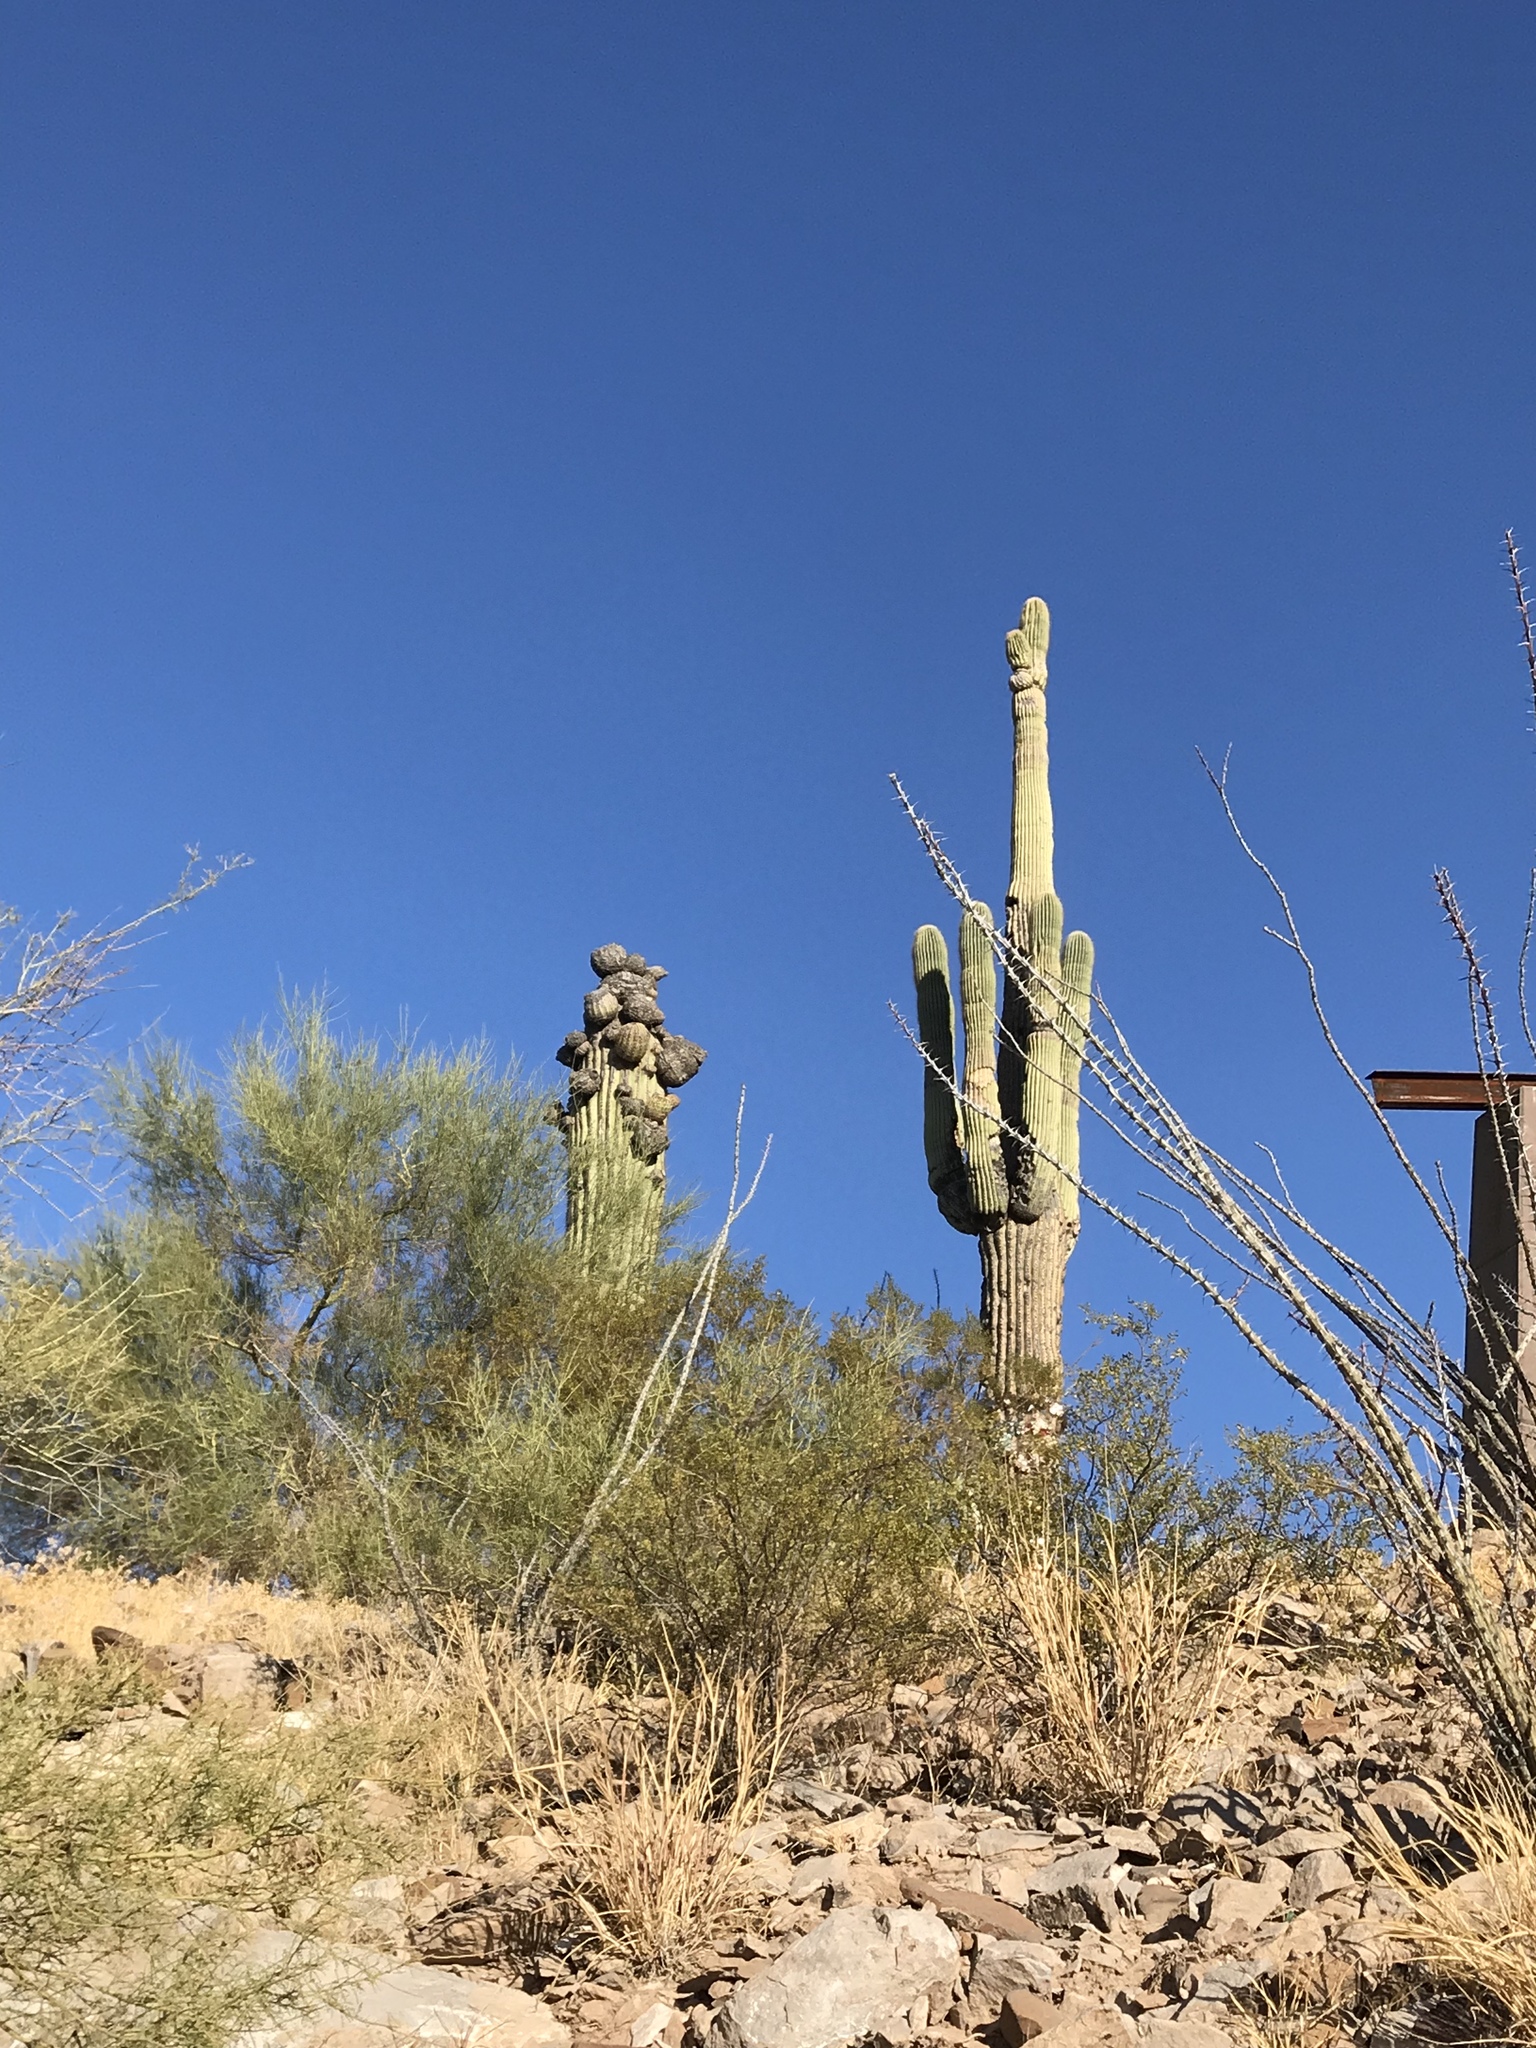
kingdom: Plantae
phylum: Tracheophyta
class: Magnoliopsida
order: Caryophyllales
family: Cactaceae
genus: Carnegiea
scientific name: Carnegiea gigantea
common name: Saguaro
